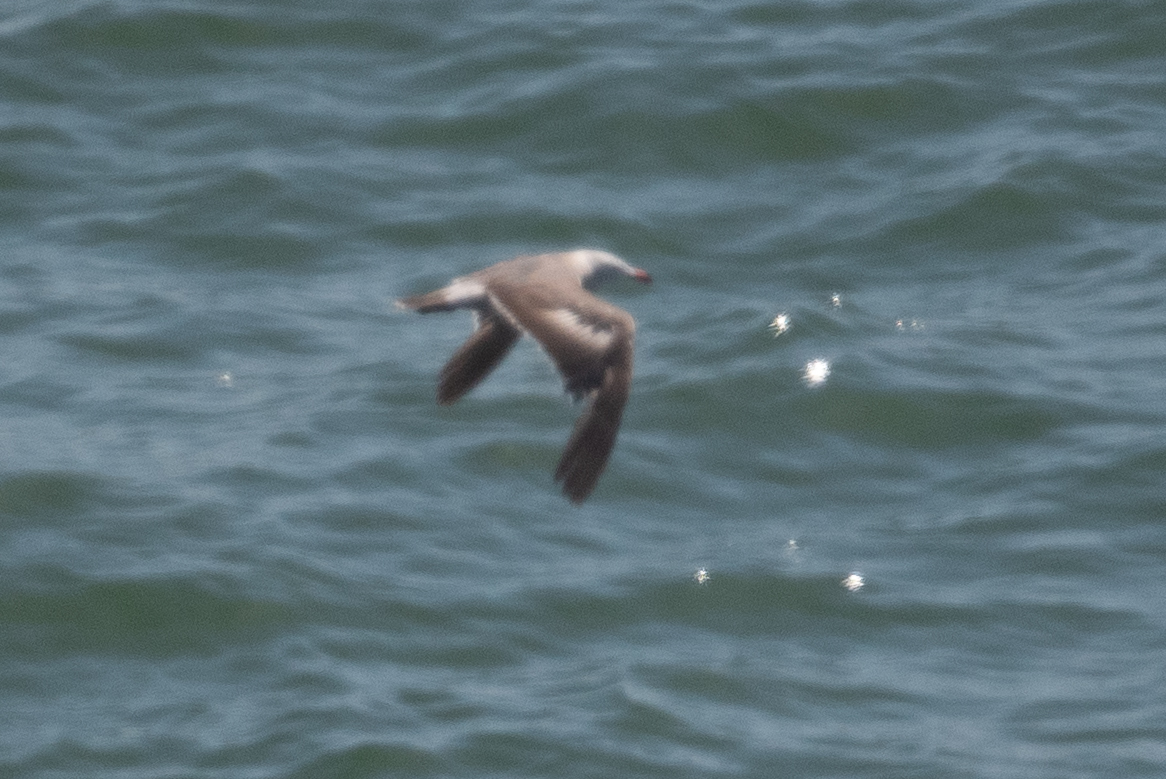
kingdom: Animalia
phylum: Chordata
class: Aves
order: Charadriiformes
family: Laridae
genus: Larus
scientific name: Larus heermanni
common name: Heermann's gull
